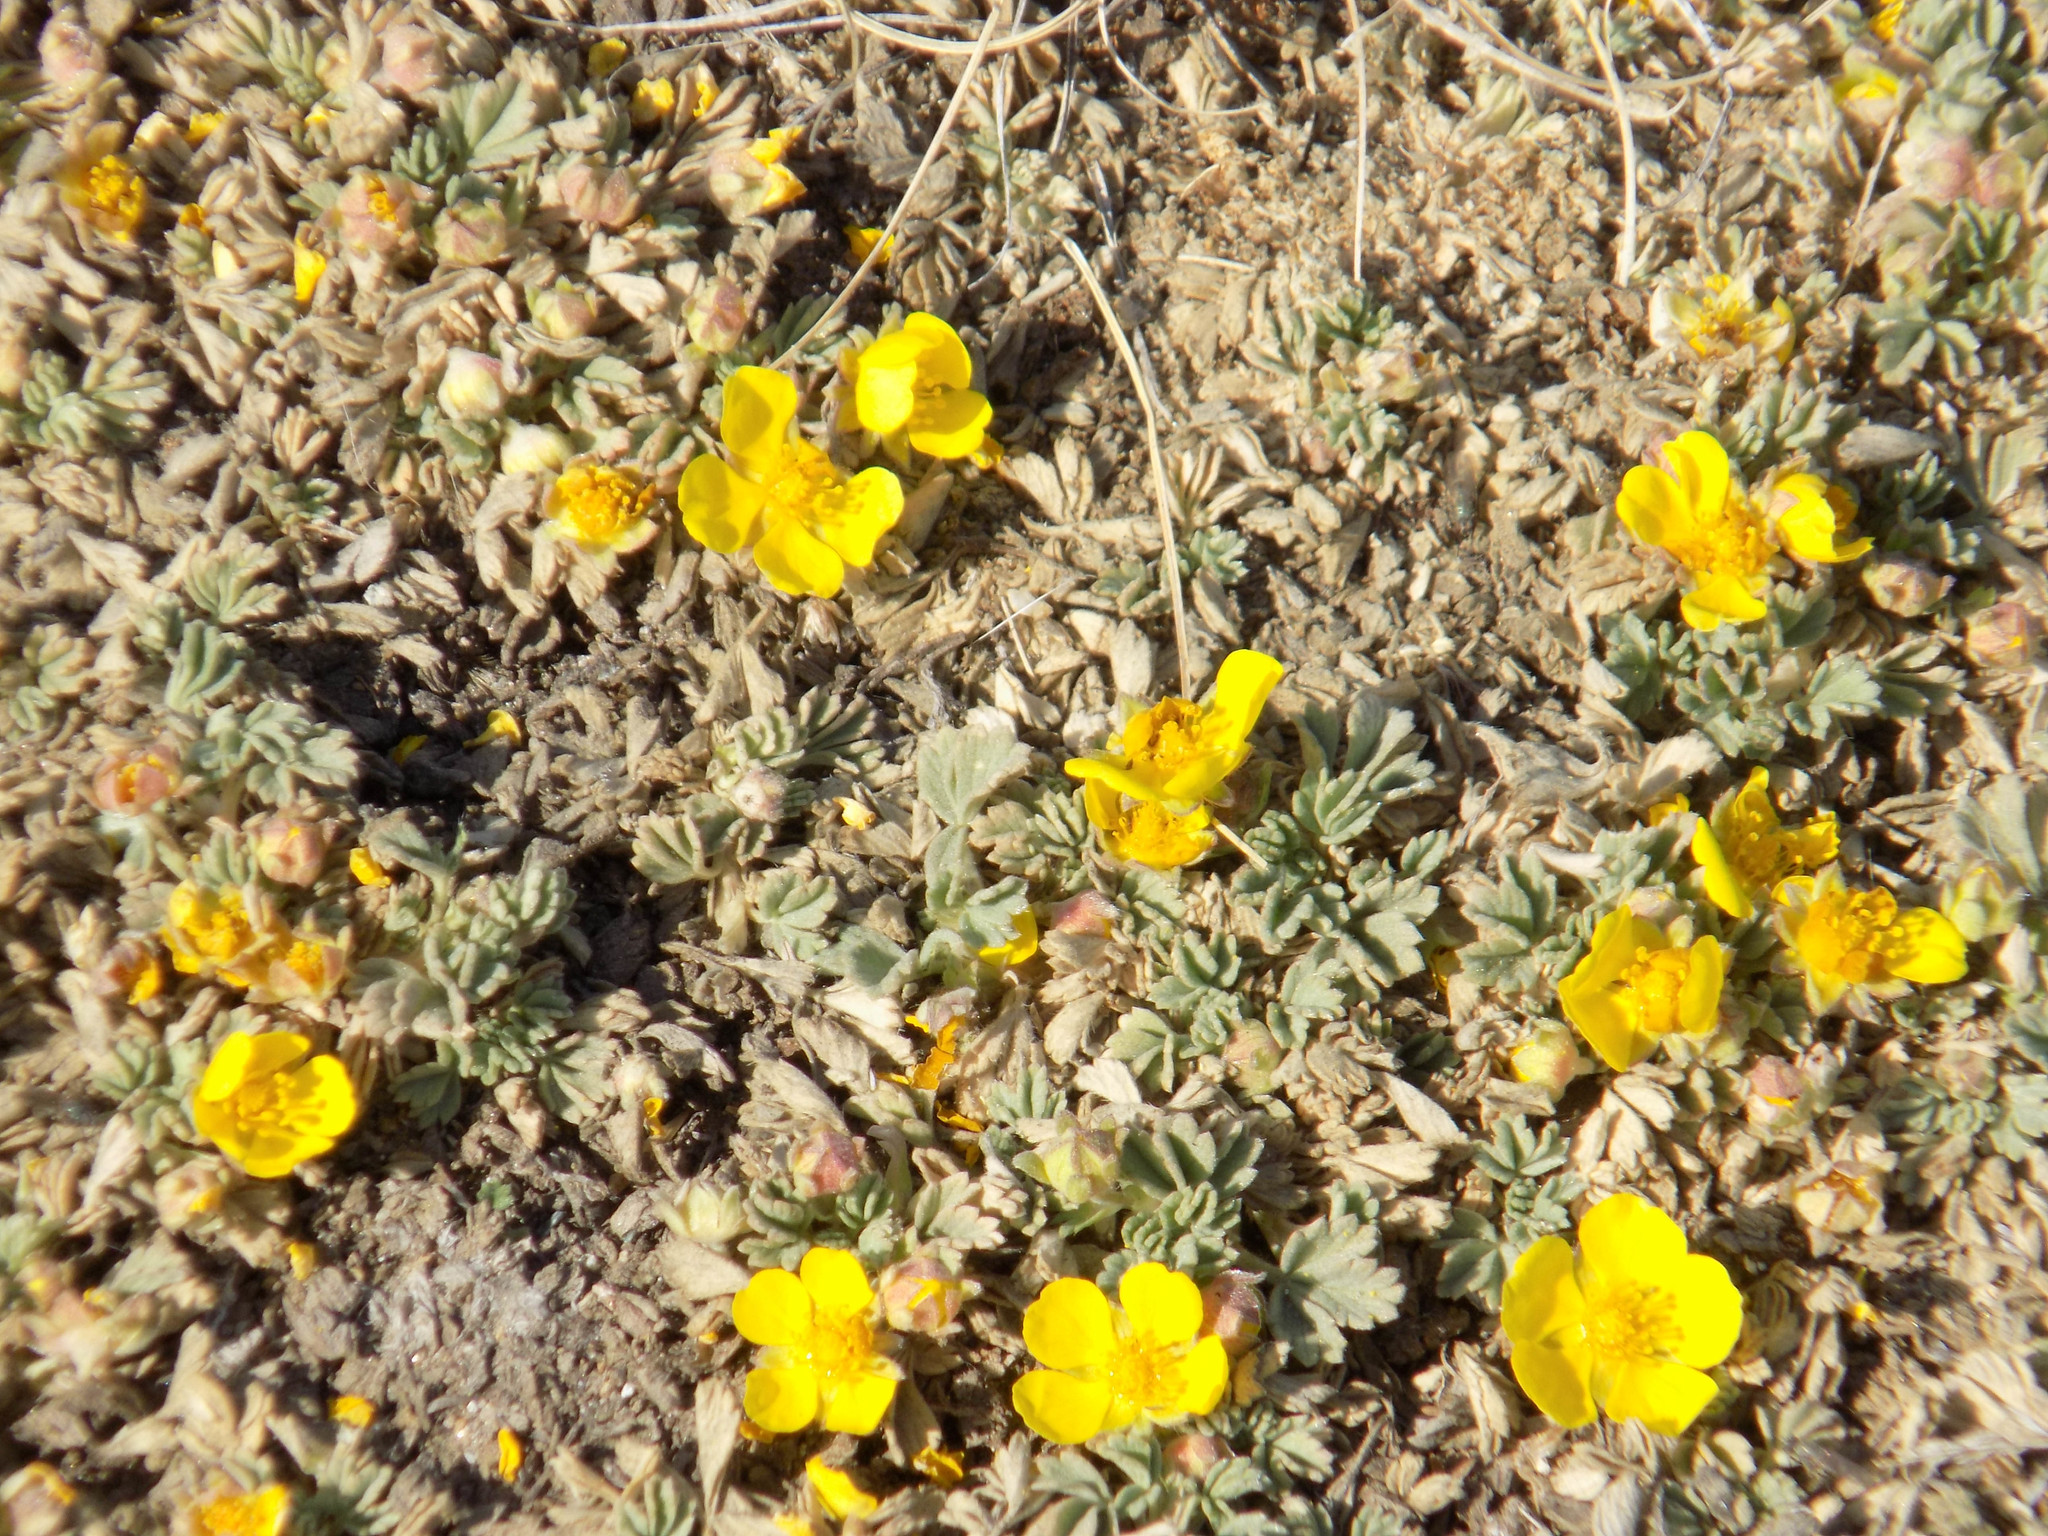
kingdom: Plantae
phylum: Tracheophyta
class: Magnoliopsida
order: Rosales
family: Rosaceae
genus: Potentilla
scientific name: Potentilla acaulis
